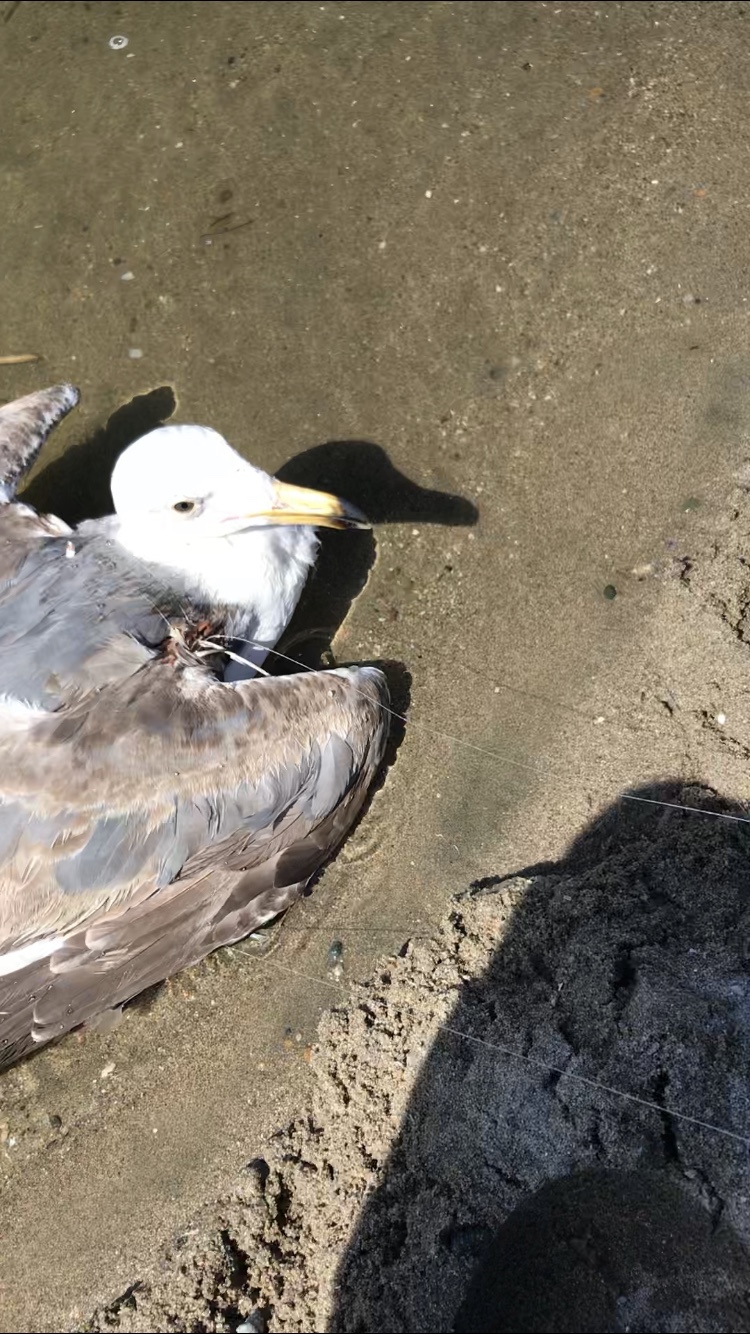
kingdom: Animalia
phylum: Chordata
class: Aves
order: Charadriiformes
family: Laridae
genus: Larus
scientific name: Larus
